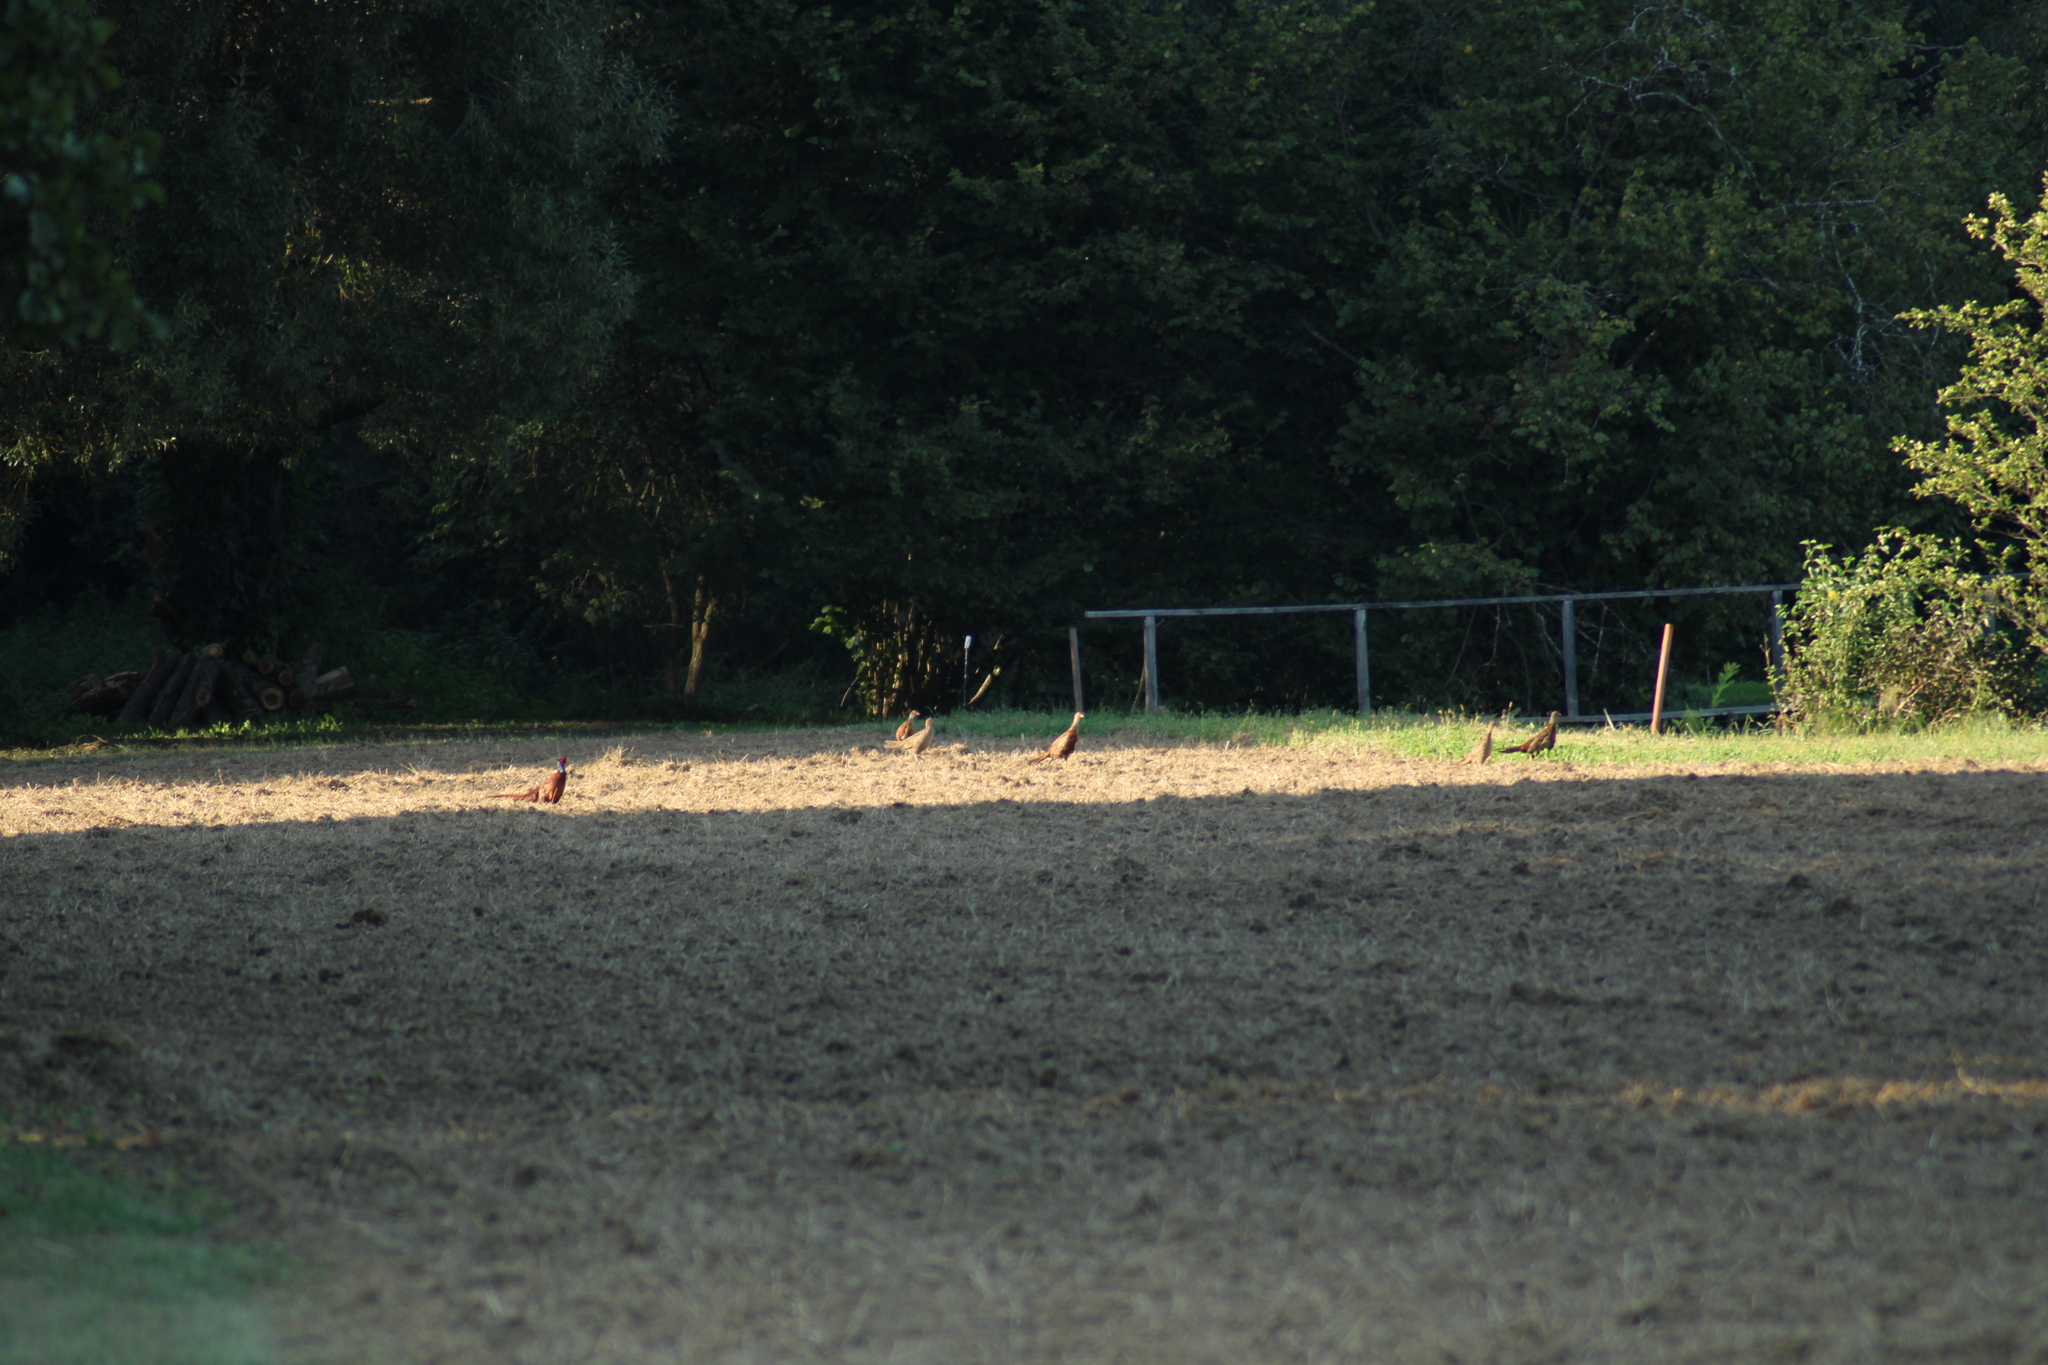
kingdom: Animalia
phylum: Chordata
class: Aves
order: Galliformes
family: Phasianidae
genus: Phasianus
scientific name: Phasianus colchicus
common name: Common pheasant
